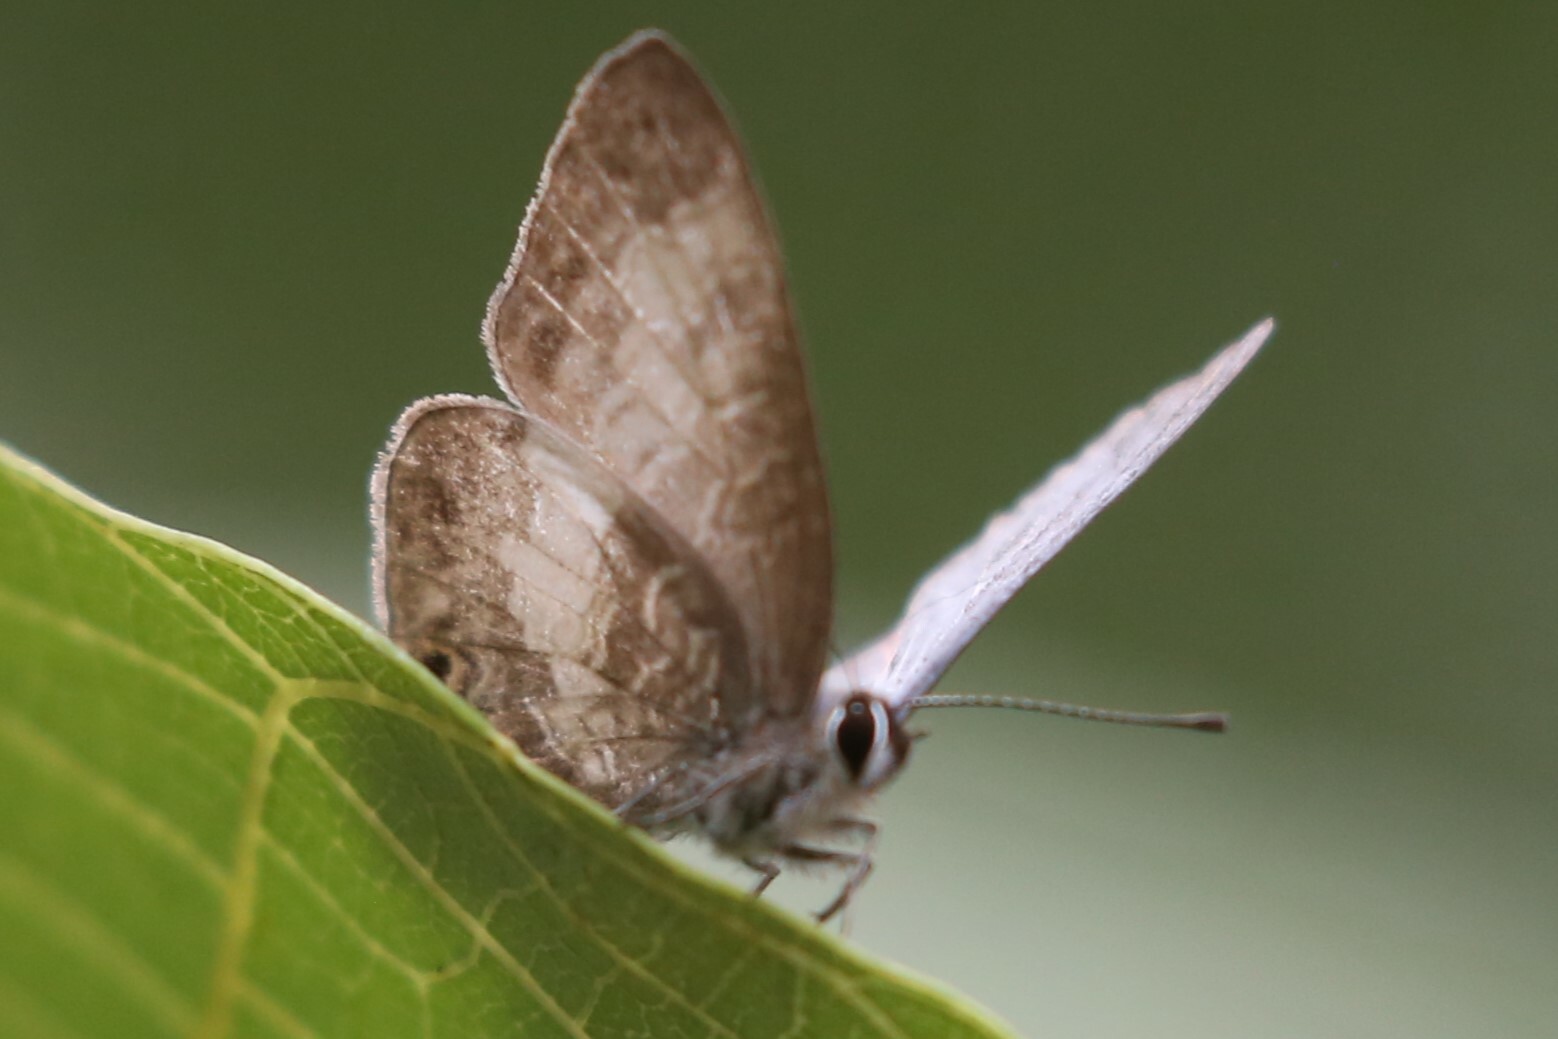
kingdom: Animalia
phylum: Arthropoda
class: Insecta
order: Lepidoptera
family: Lycaenidae
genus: Nacaduba
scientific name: Nacaduba kurava
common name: Transparent 6-line blue
